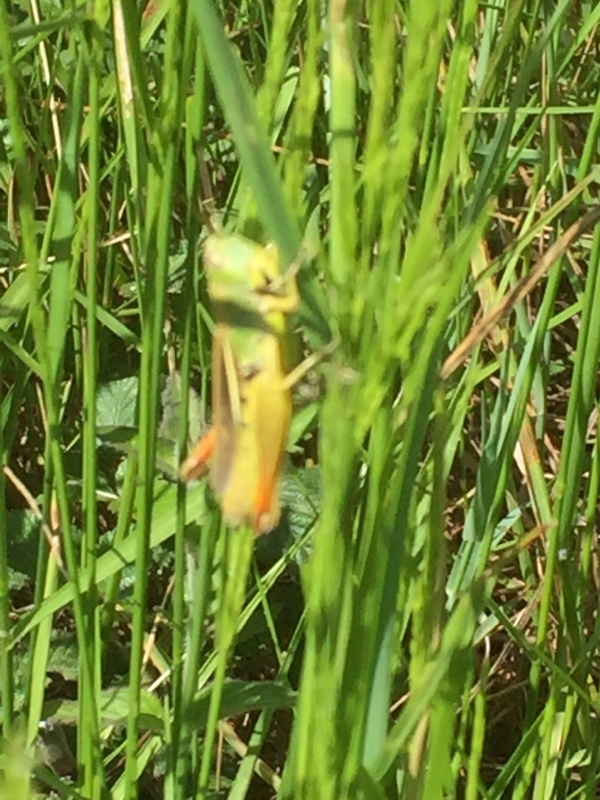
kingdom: Animalia
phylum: Arthropoda
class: Insecta
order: Orthoptera
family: Acrididae
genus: Chorthippus
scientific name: Chorthippus apicalis
